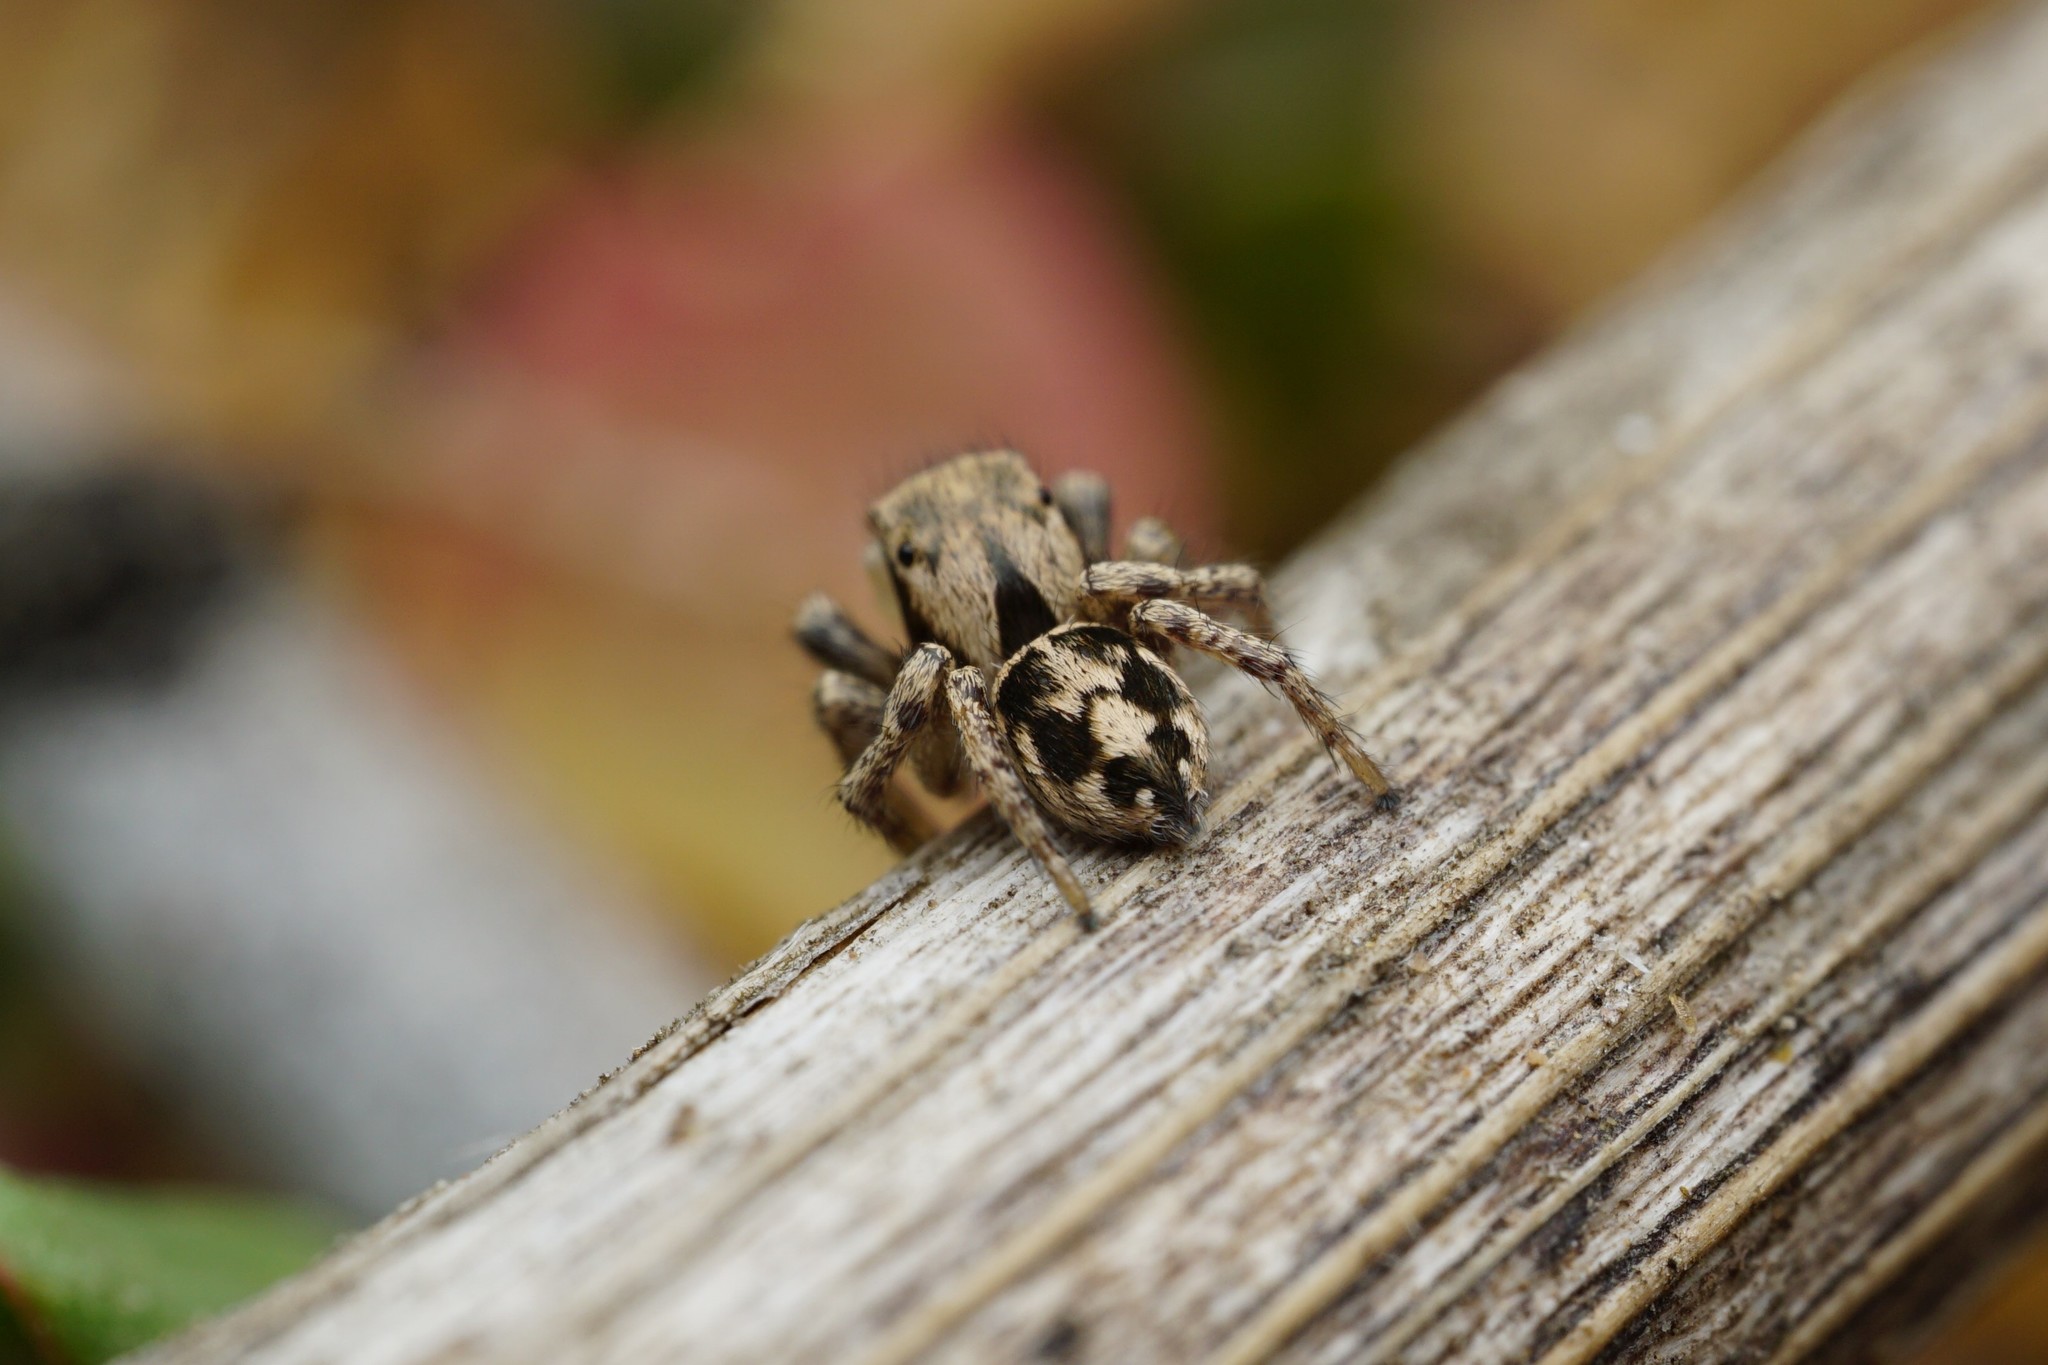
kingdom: Animalia
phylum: Arthropoda
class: Arachnida
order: Araneae
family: Salticidae
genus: Habronattus
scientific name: Habronattus clypeatus
